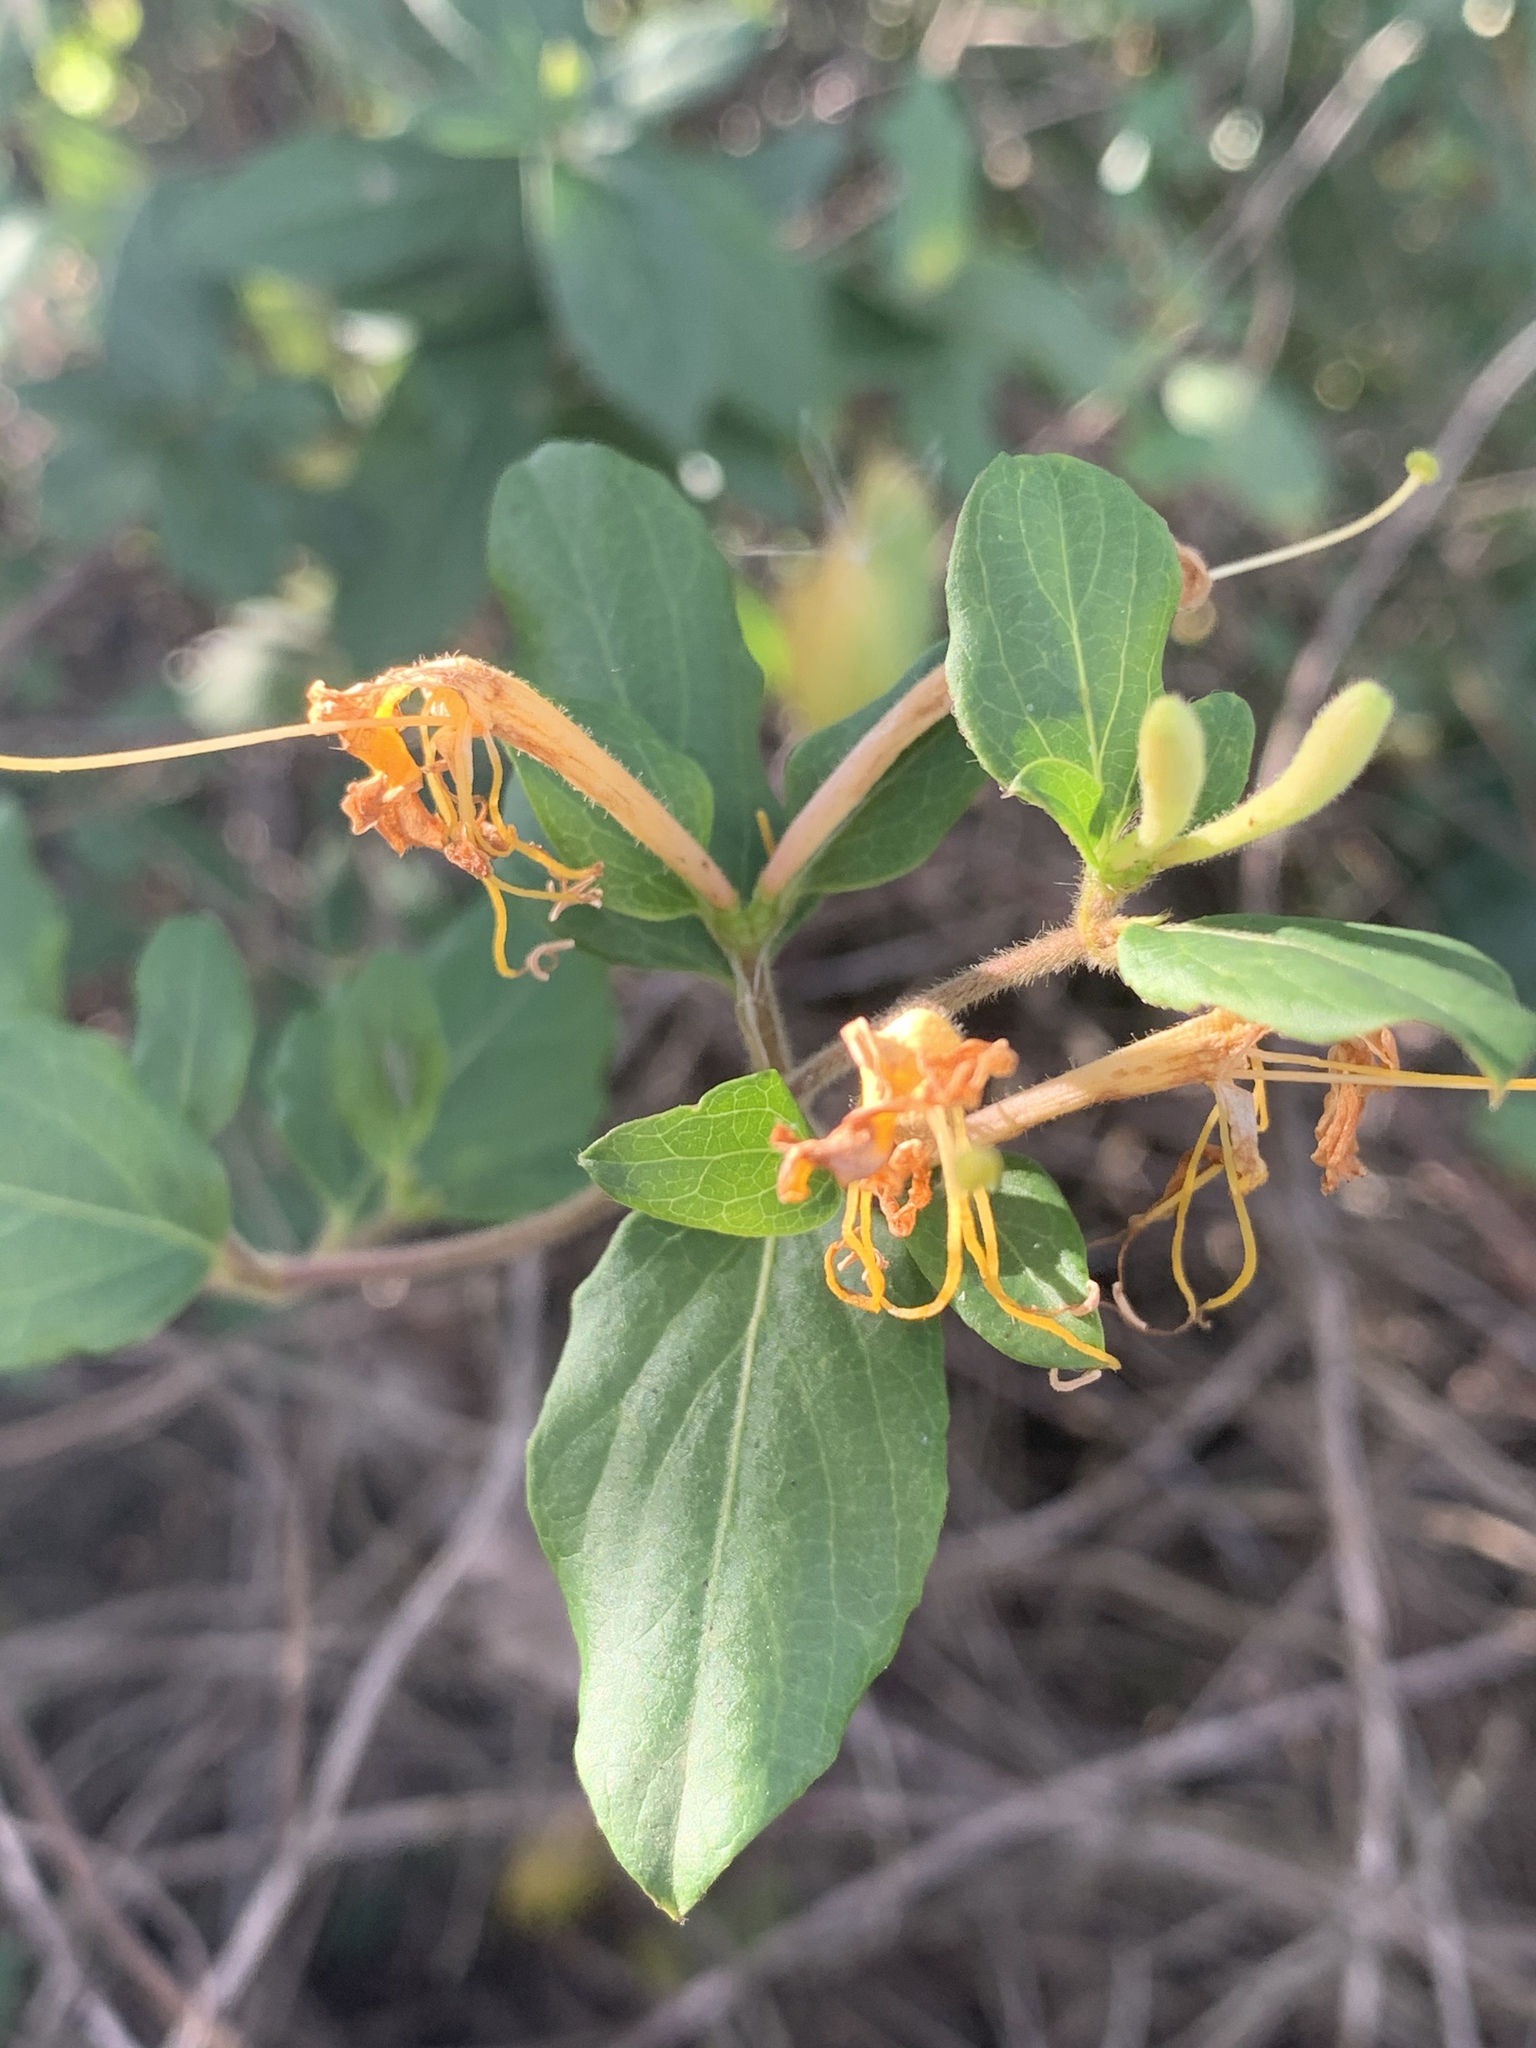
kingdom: Plantae
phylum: Tracheophyta
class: Magnoliopsida
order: Dipsacales
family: Caprifoliaceae
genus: Lonicera
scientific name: Lonicera japonica
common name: Japanese honeysuckle
